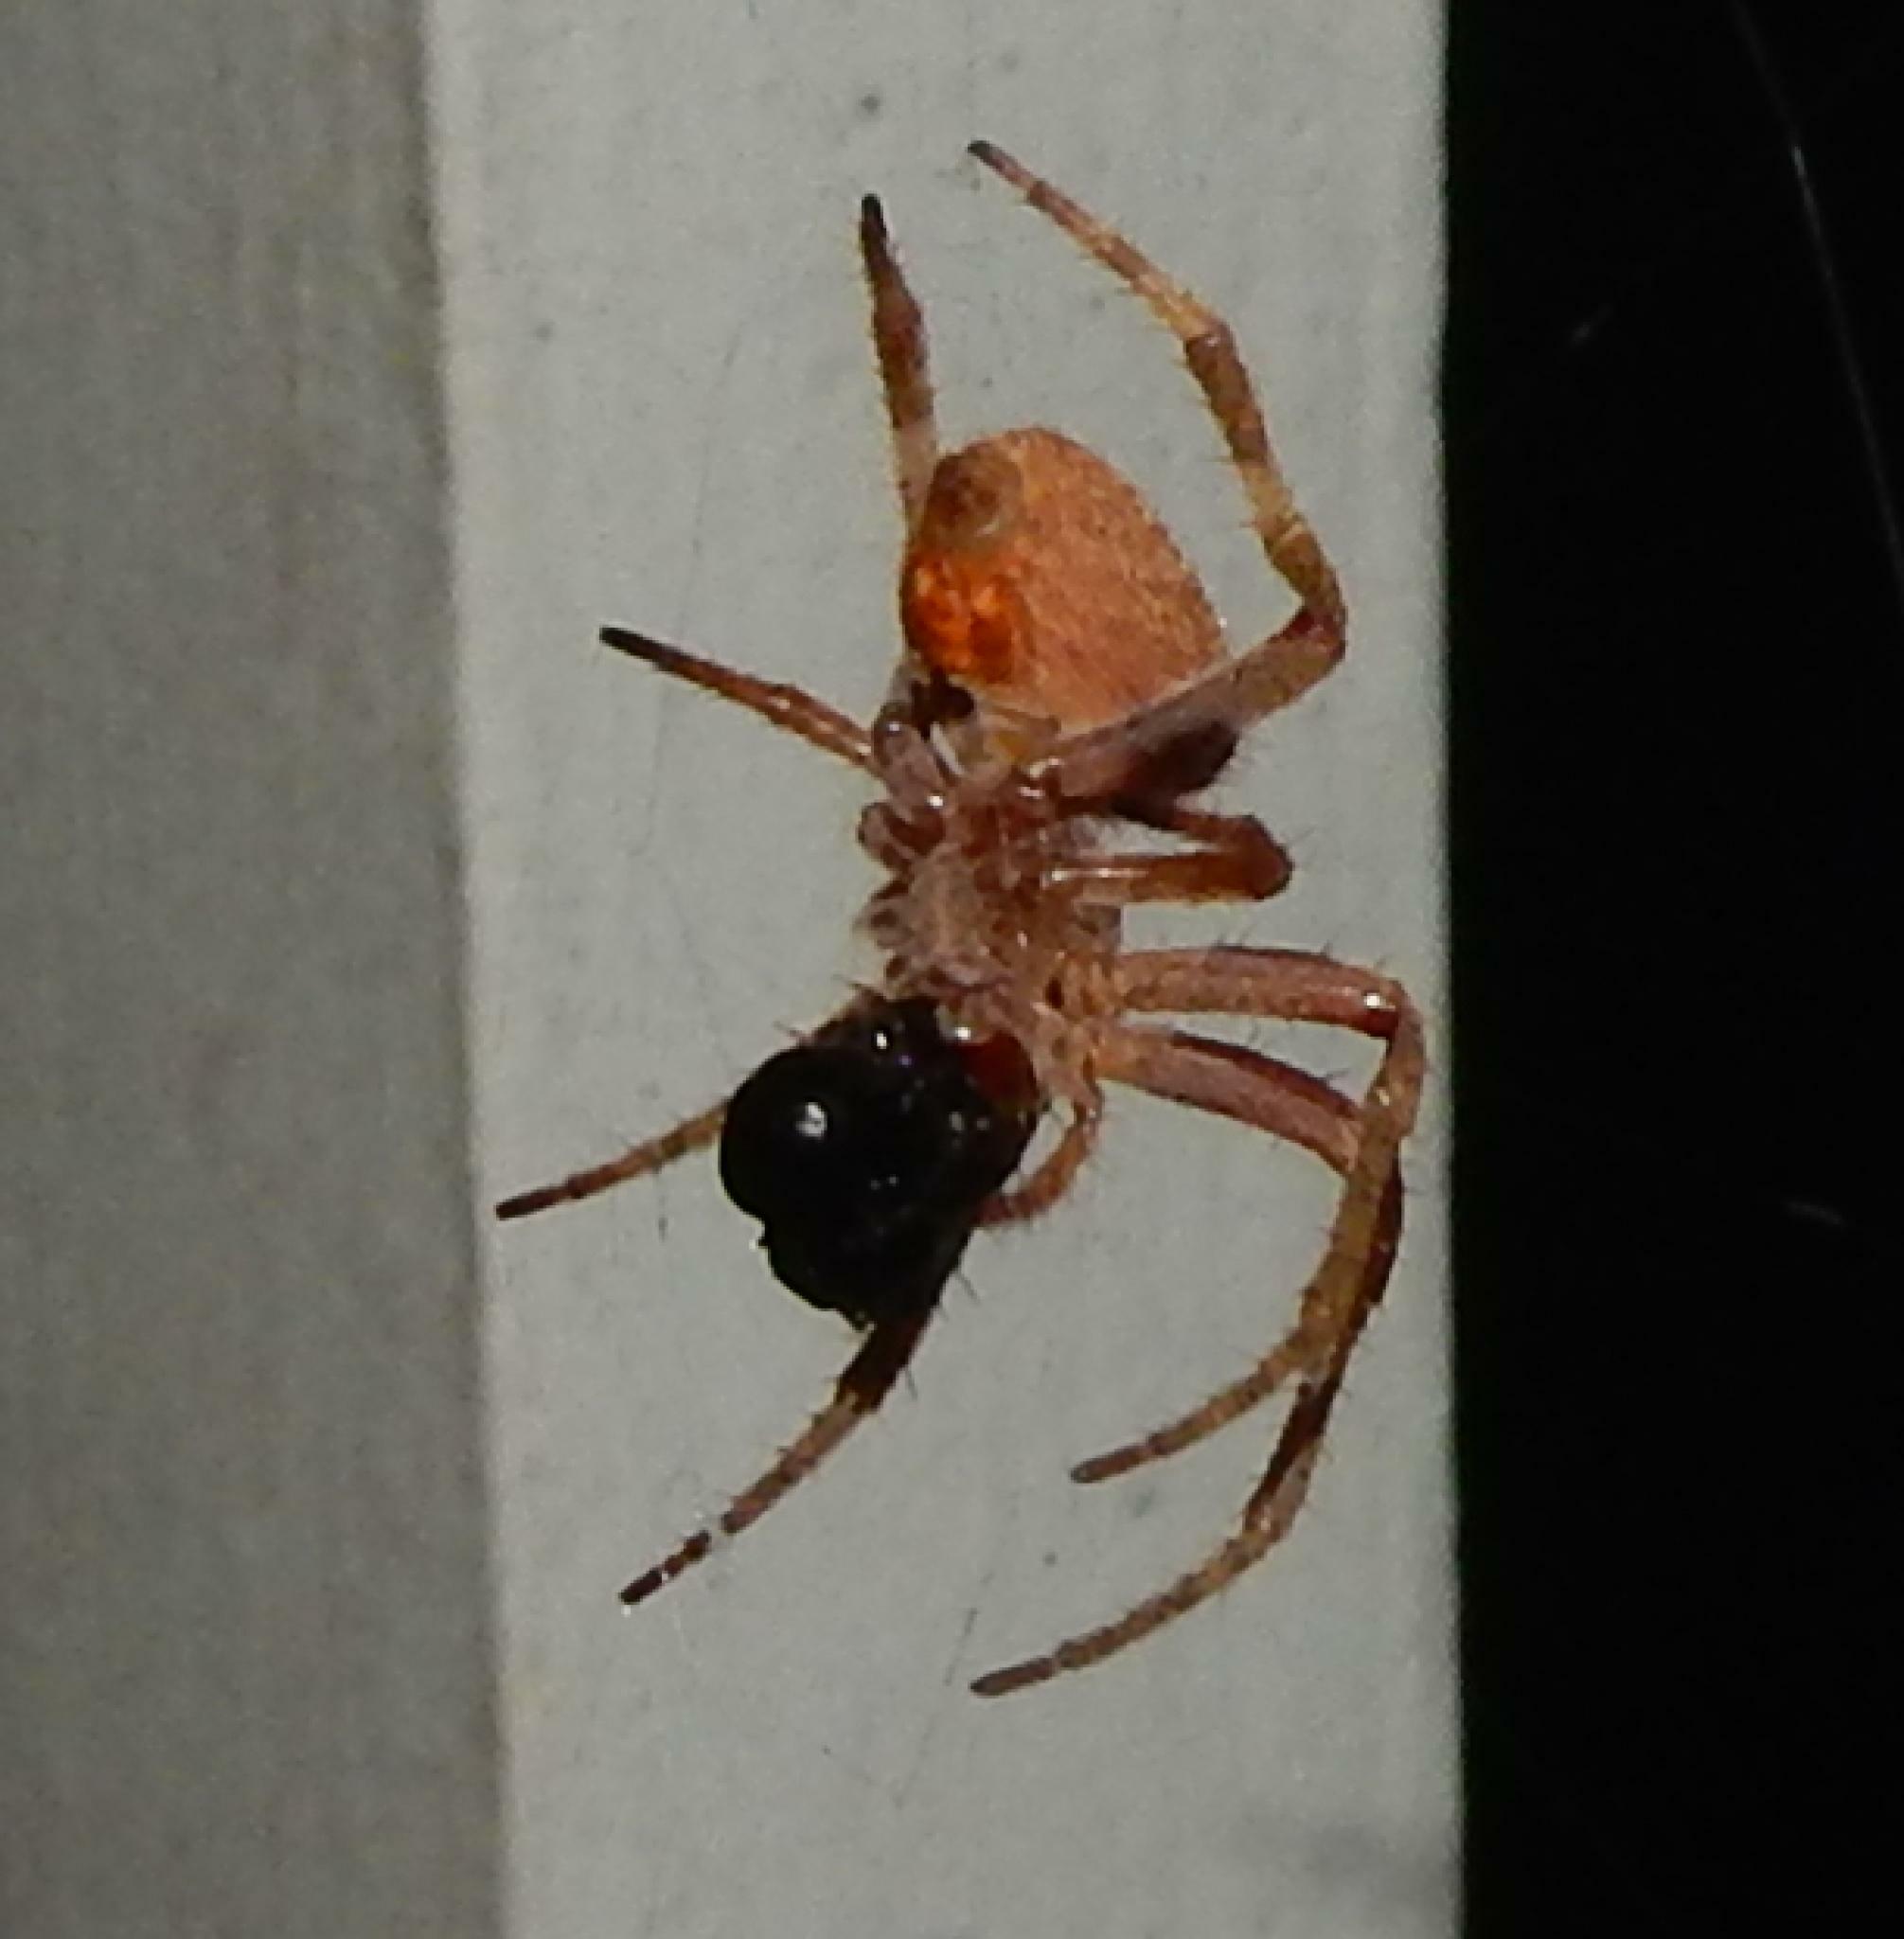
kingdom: Animalia
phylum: Arthropoda
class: Arachnida
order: Araneae
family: Araneidae
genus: Neoscona
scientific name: Neoscona triangula
